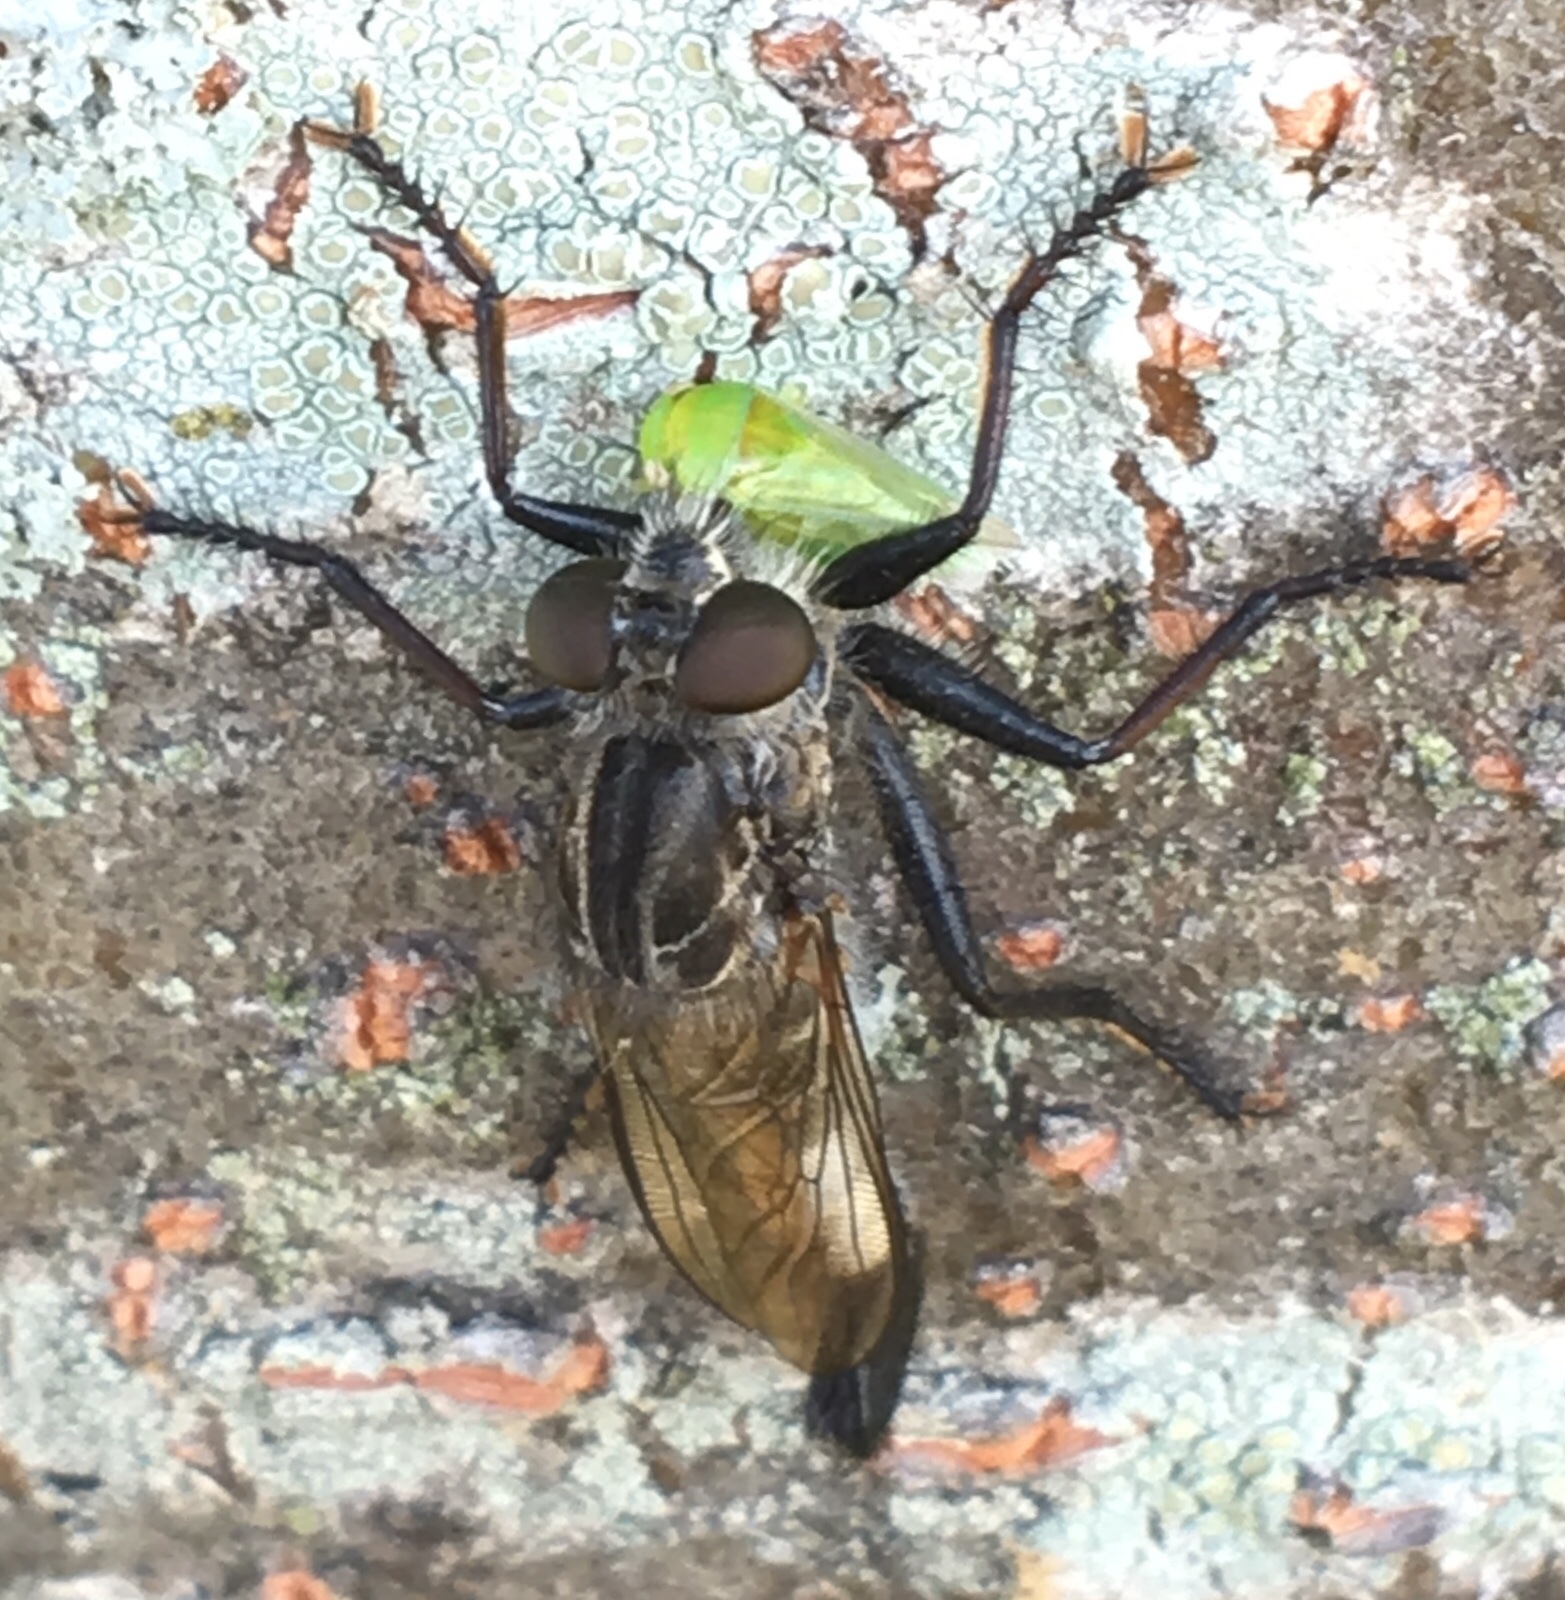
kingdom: Animalia
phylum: Arthropoda
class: Insecta
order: Diptera
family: Asilidae
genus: Efferia
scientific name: Efferia aestuans
